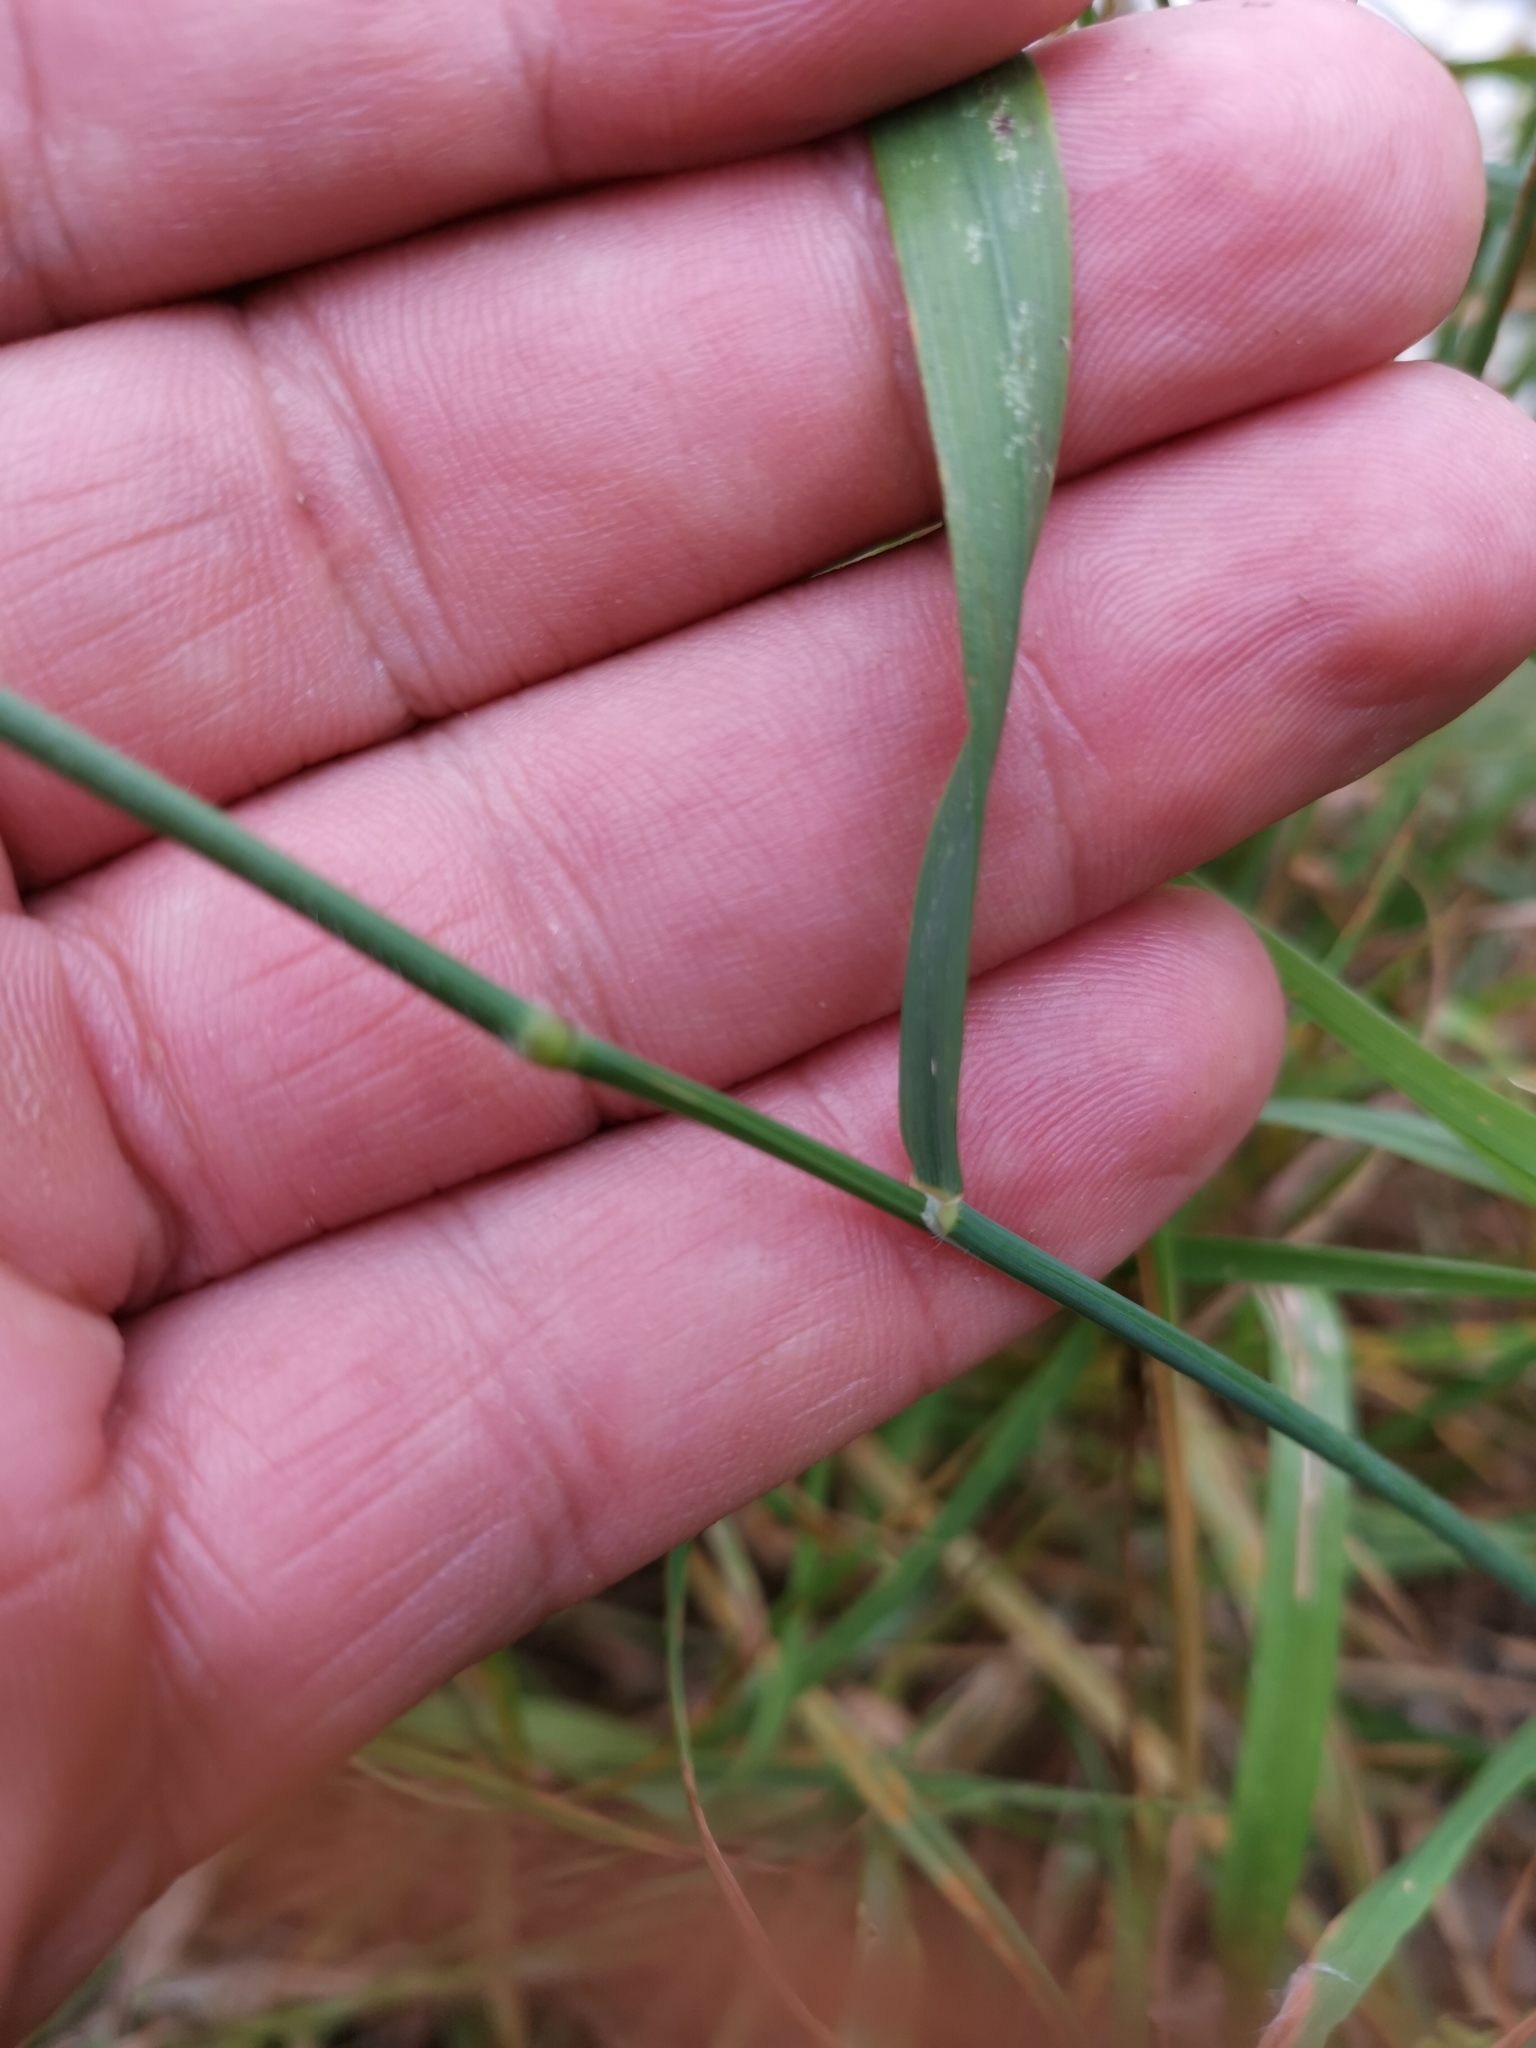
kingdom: Plantae
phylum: Tracheophyta
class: Liliopsida
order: Poales
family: Poaceae
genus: Arrhenatherum
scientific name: Arrhenatherum elatius
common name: Tall oatgrass
